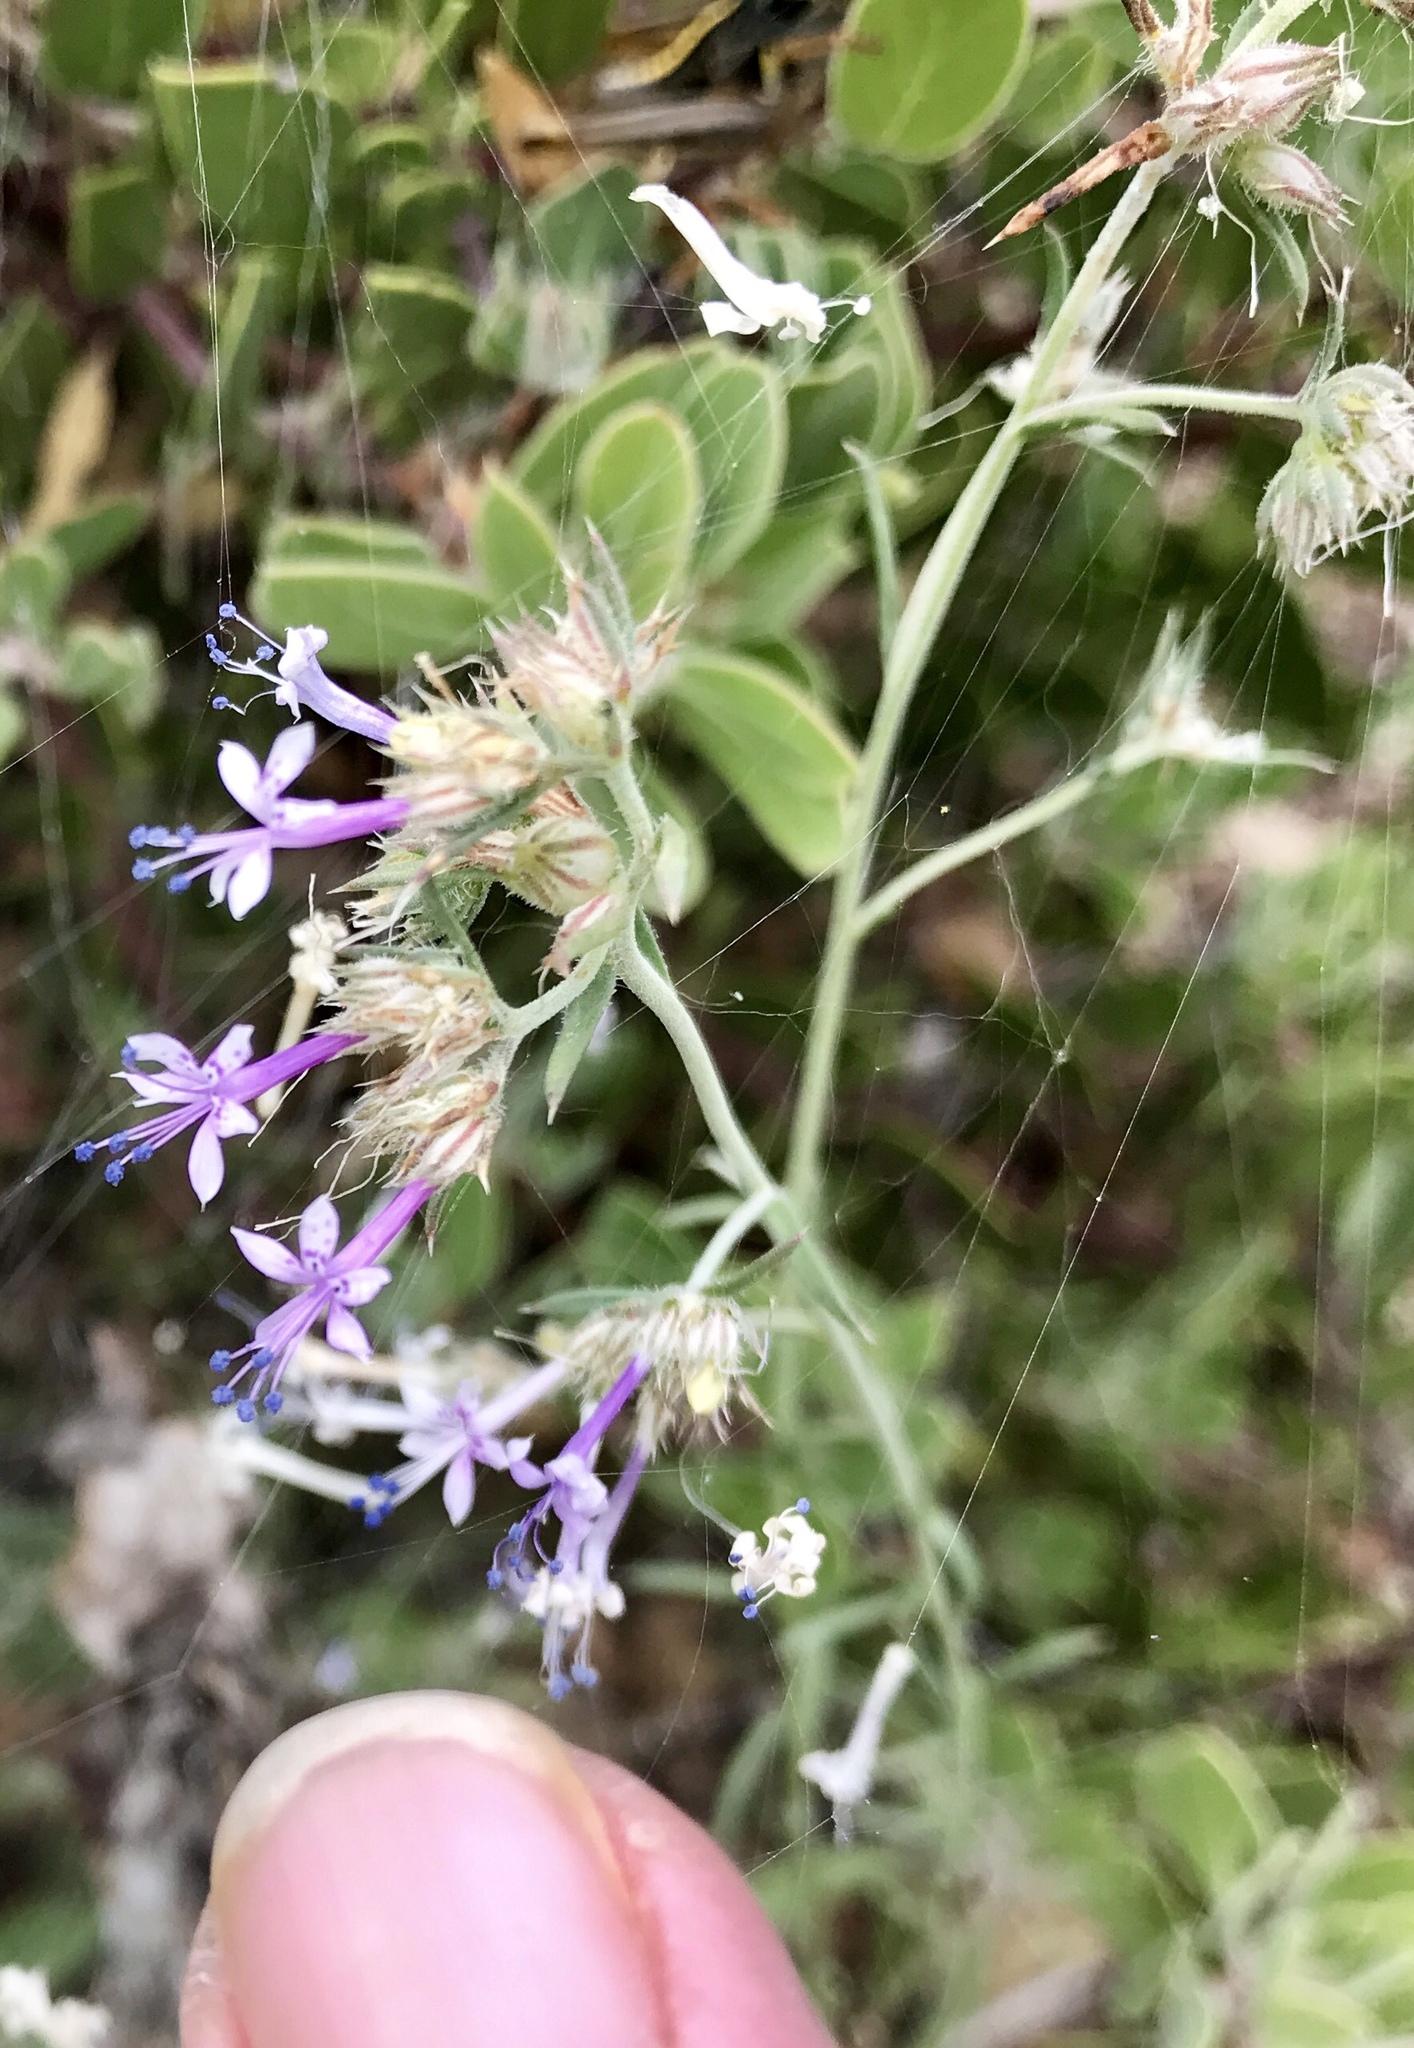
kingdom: Plantae
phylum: Tracheophyta
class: Magnoliopsida
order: Ericales
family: Polemoniaceae
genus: Ipomopsis
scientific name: Ipomopsis multiflora
